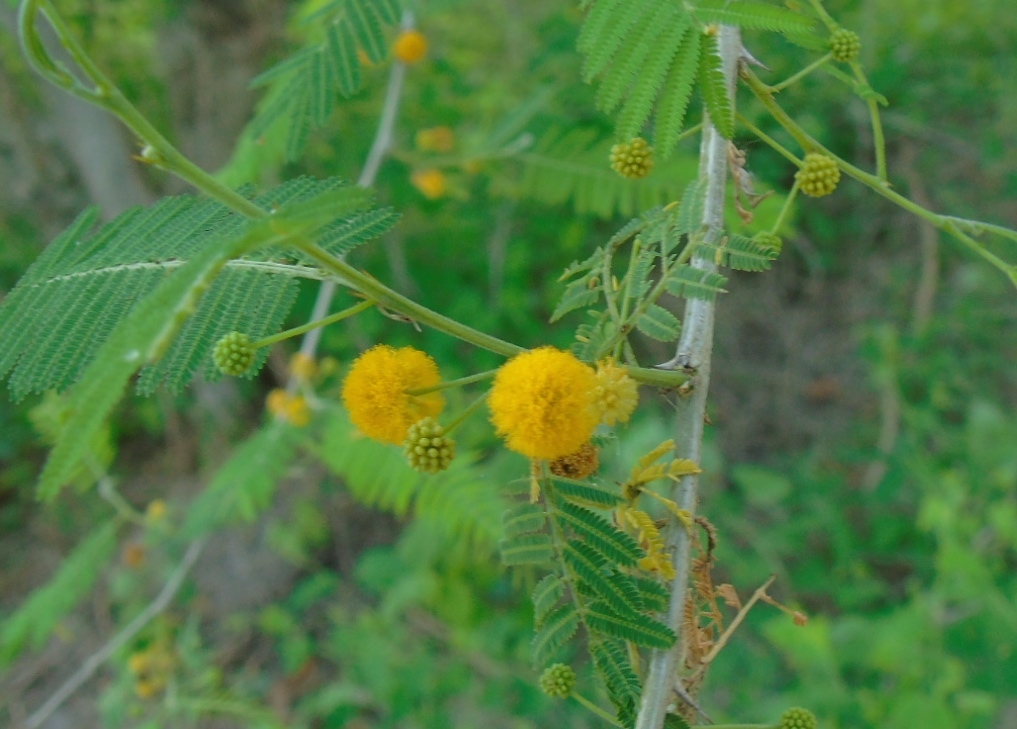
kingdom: Plantae
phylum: Tracheophyta
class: Magnoliopsida
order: Fabales
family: Fabaceae
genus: Acacia
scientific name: Acacia
